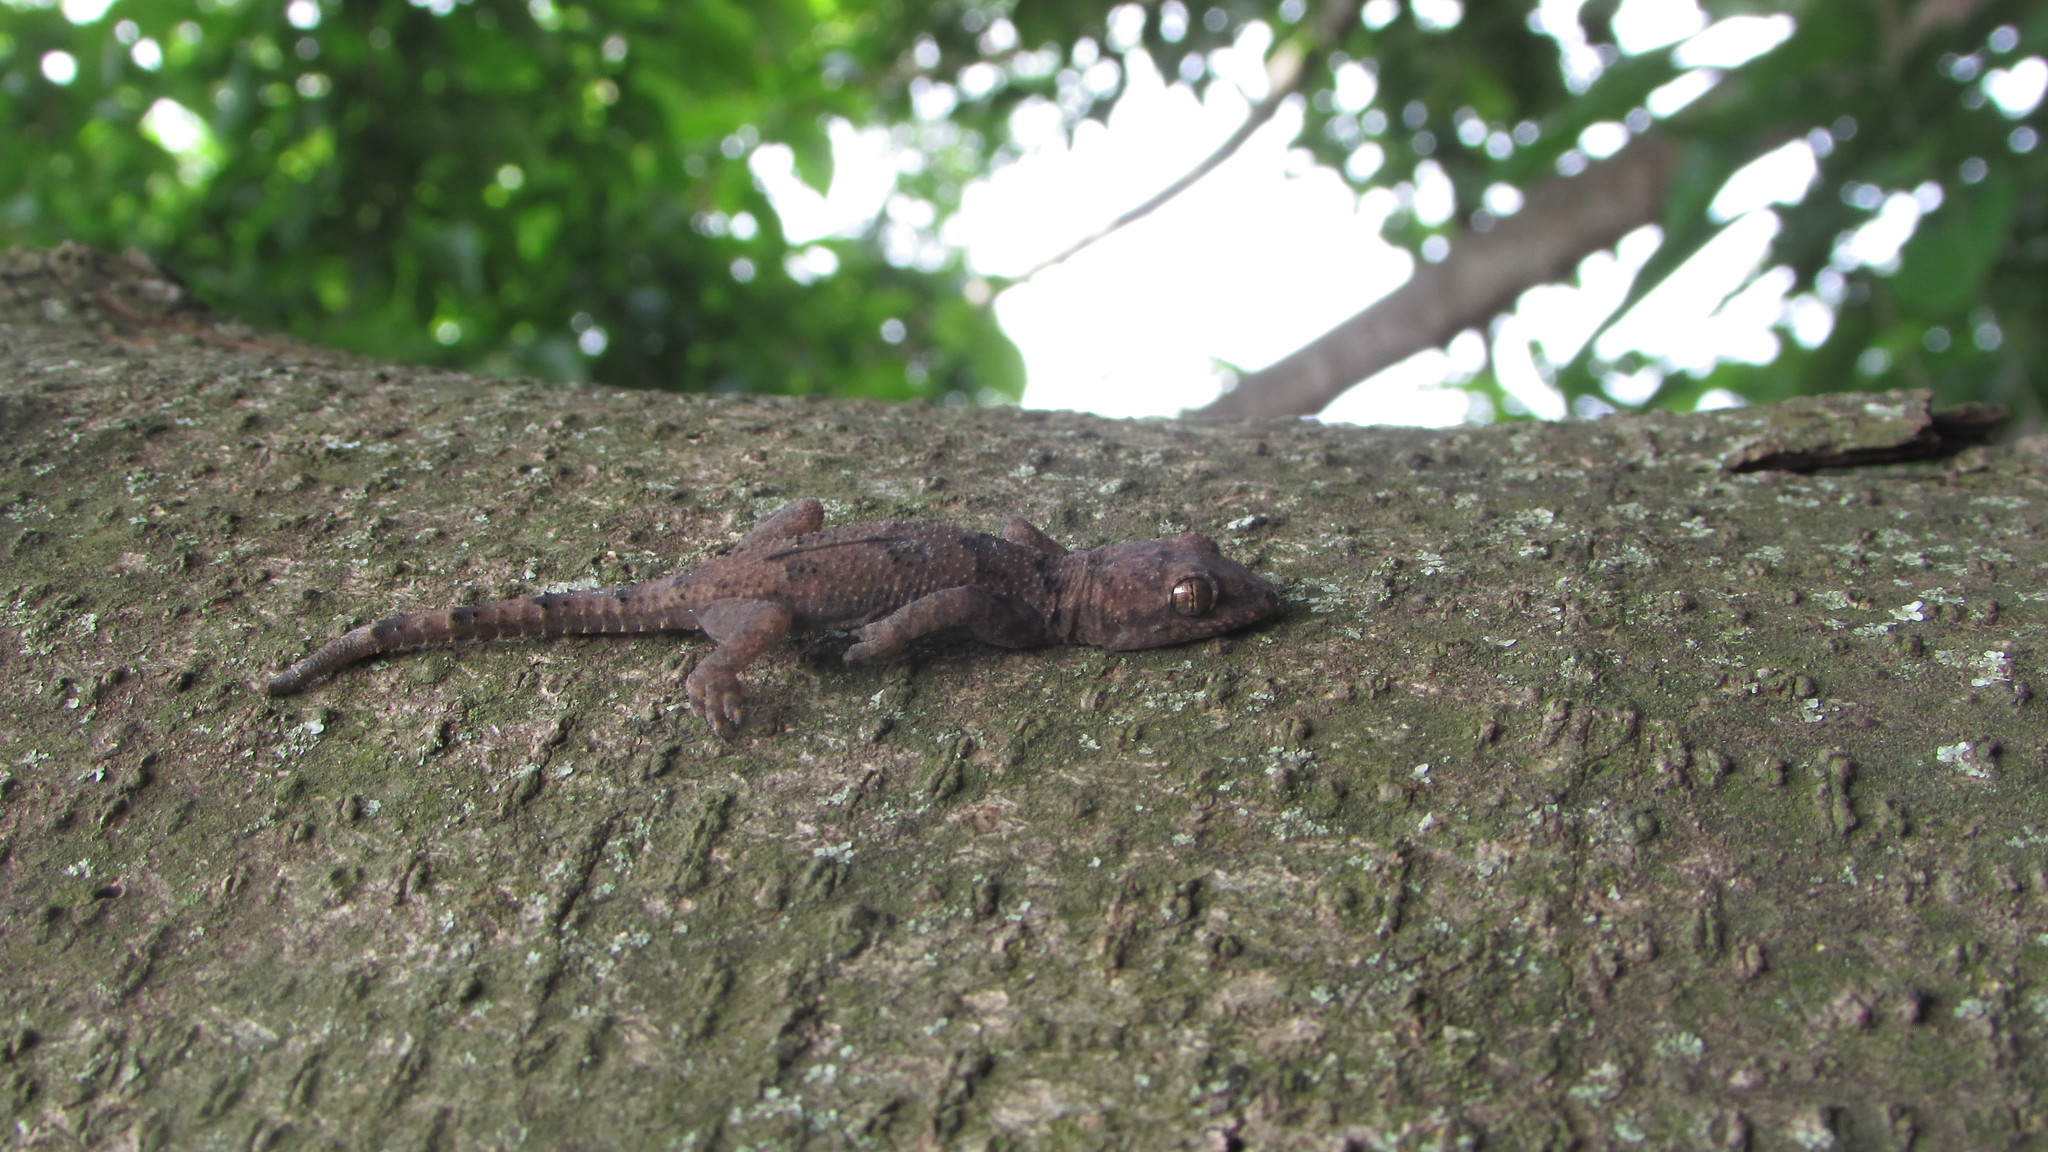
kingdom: Animalia
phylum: Chordata
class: Squamata
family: Gekkonidae
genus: Hemidactylus
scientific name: Hemidactylus mabouia
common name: House gecko
